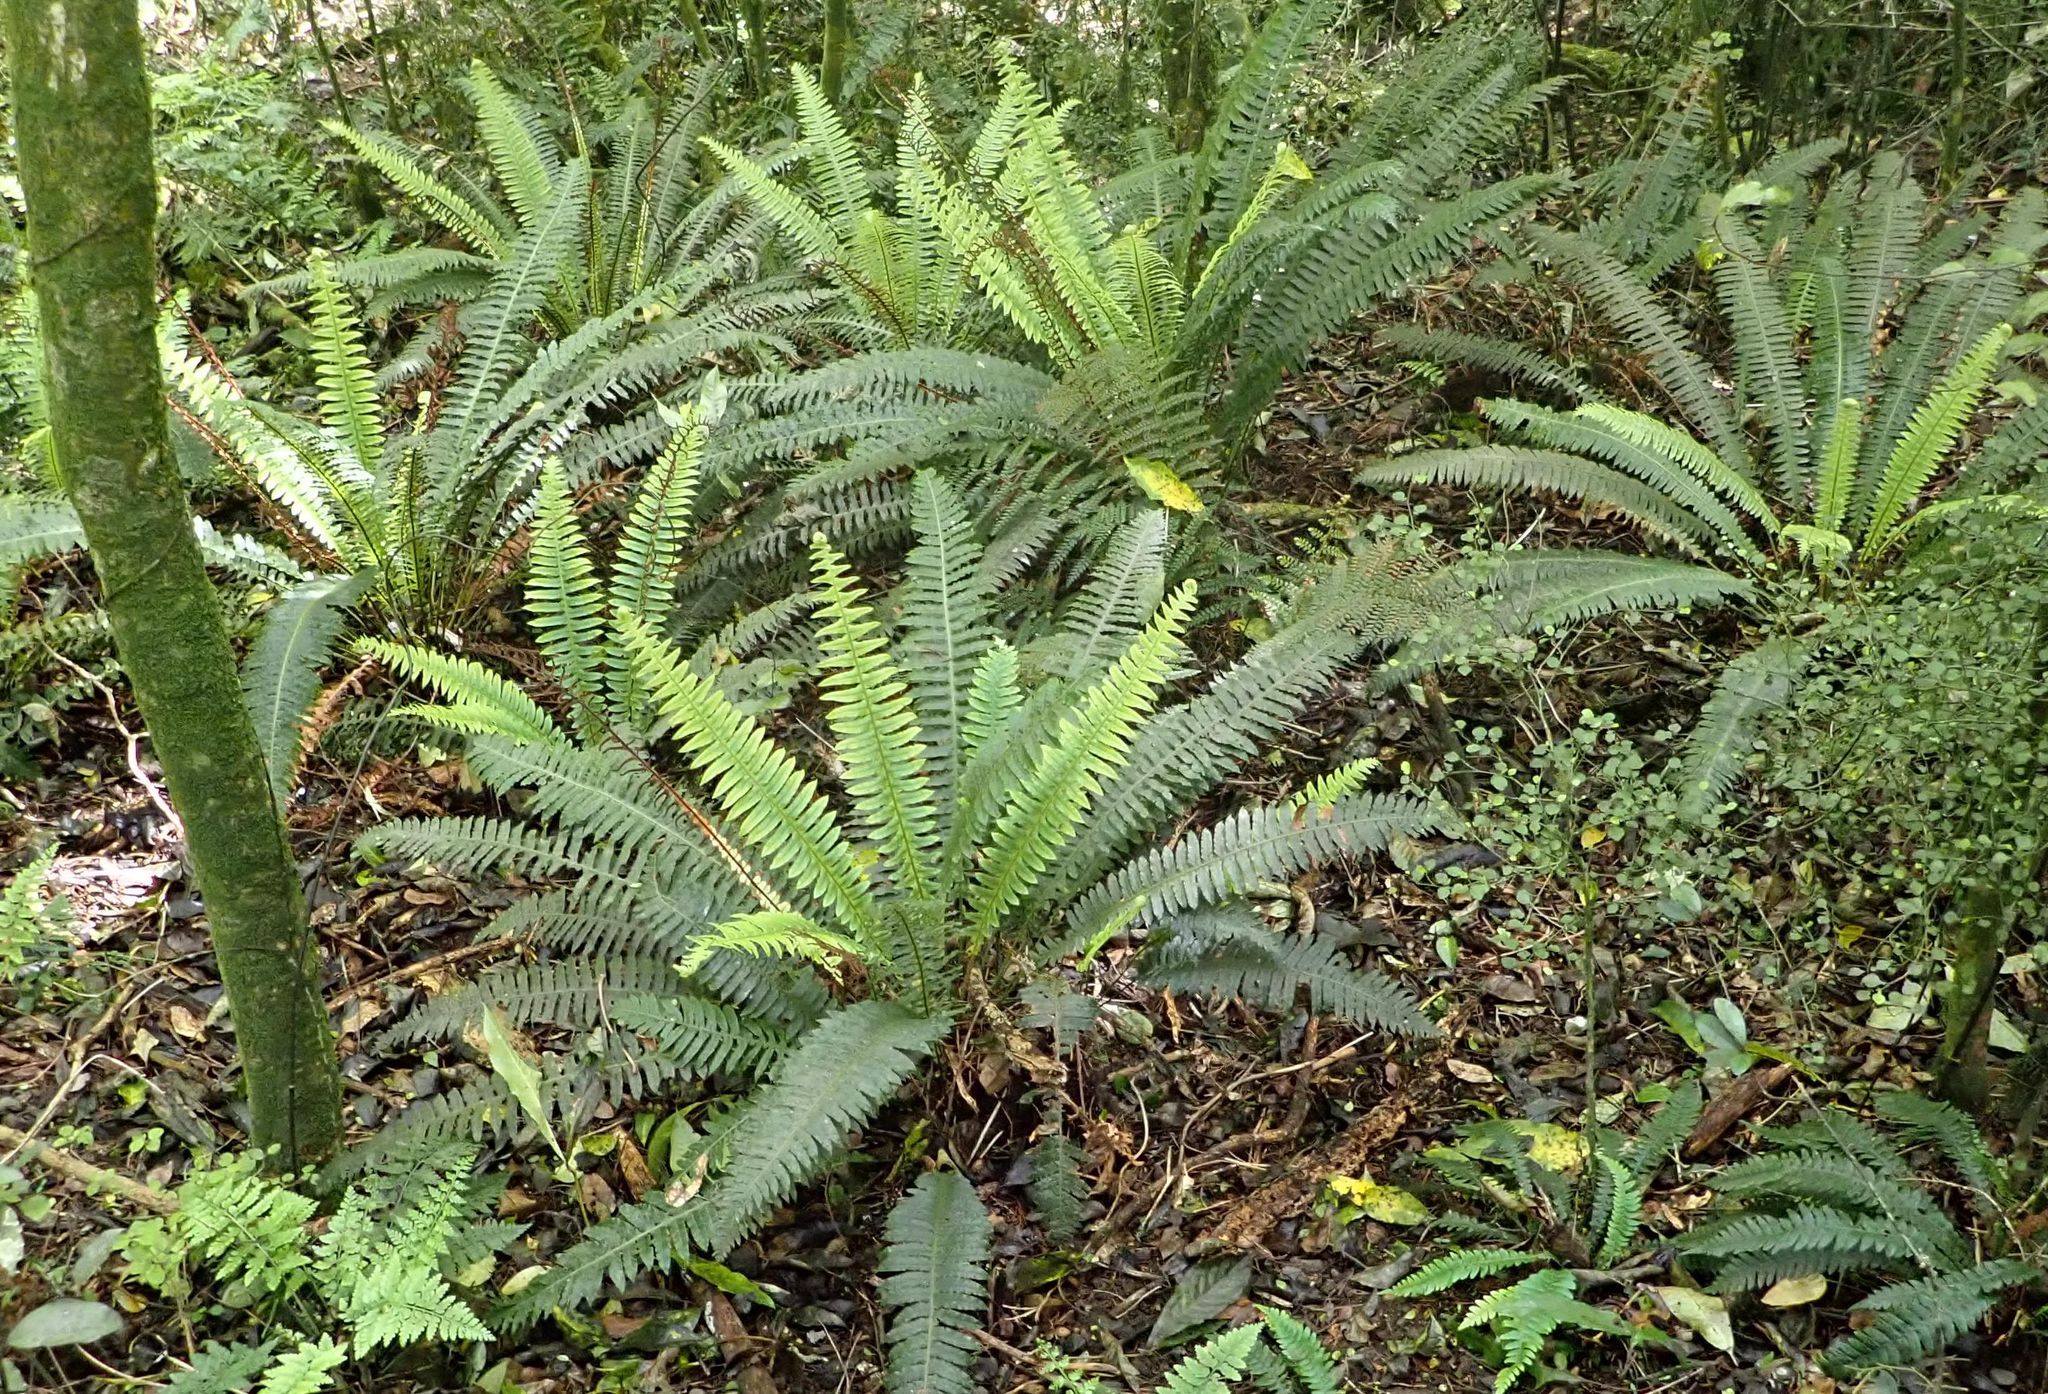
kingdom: Plantae
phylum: Tracheophyta
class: Polypodiopsida
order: Polypodiales
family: Blechnaceae
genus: Lomaria
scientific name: Lomaria discolor
